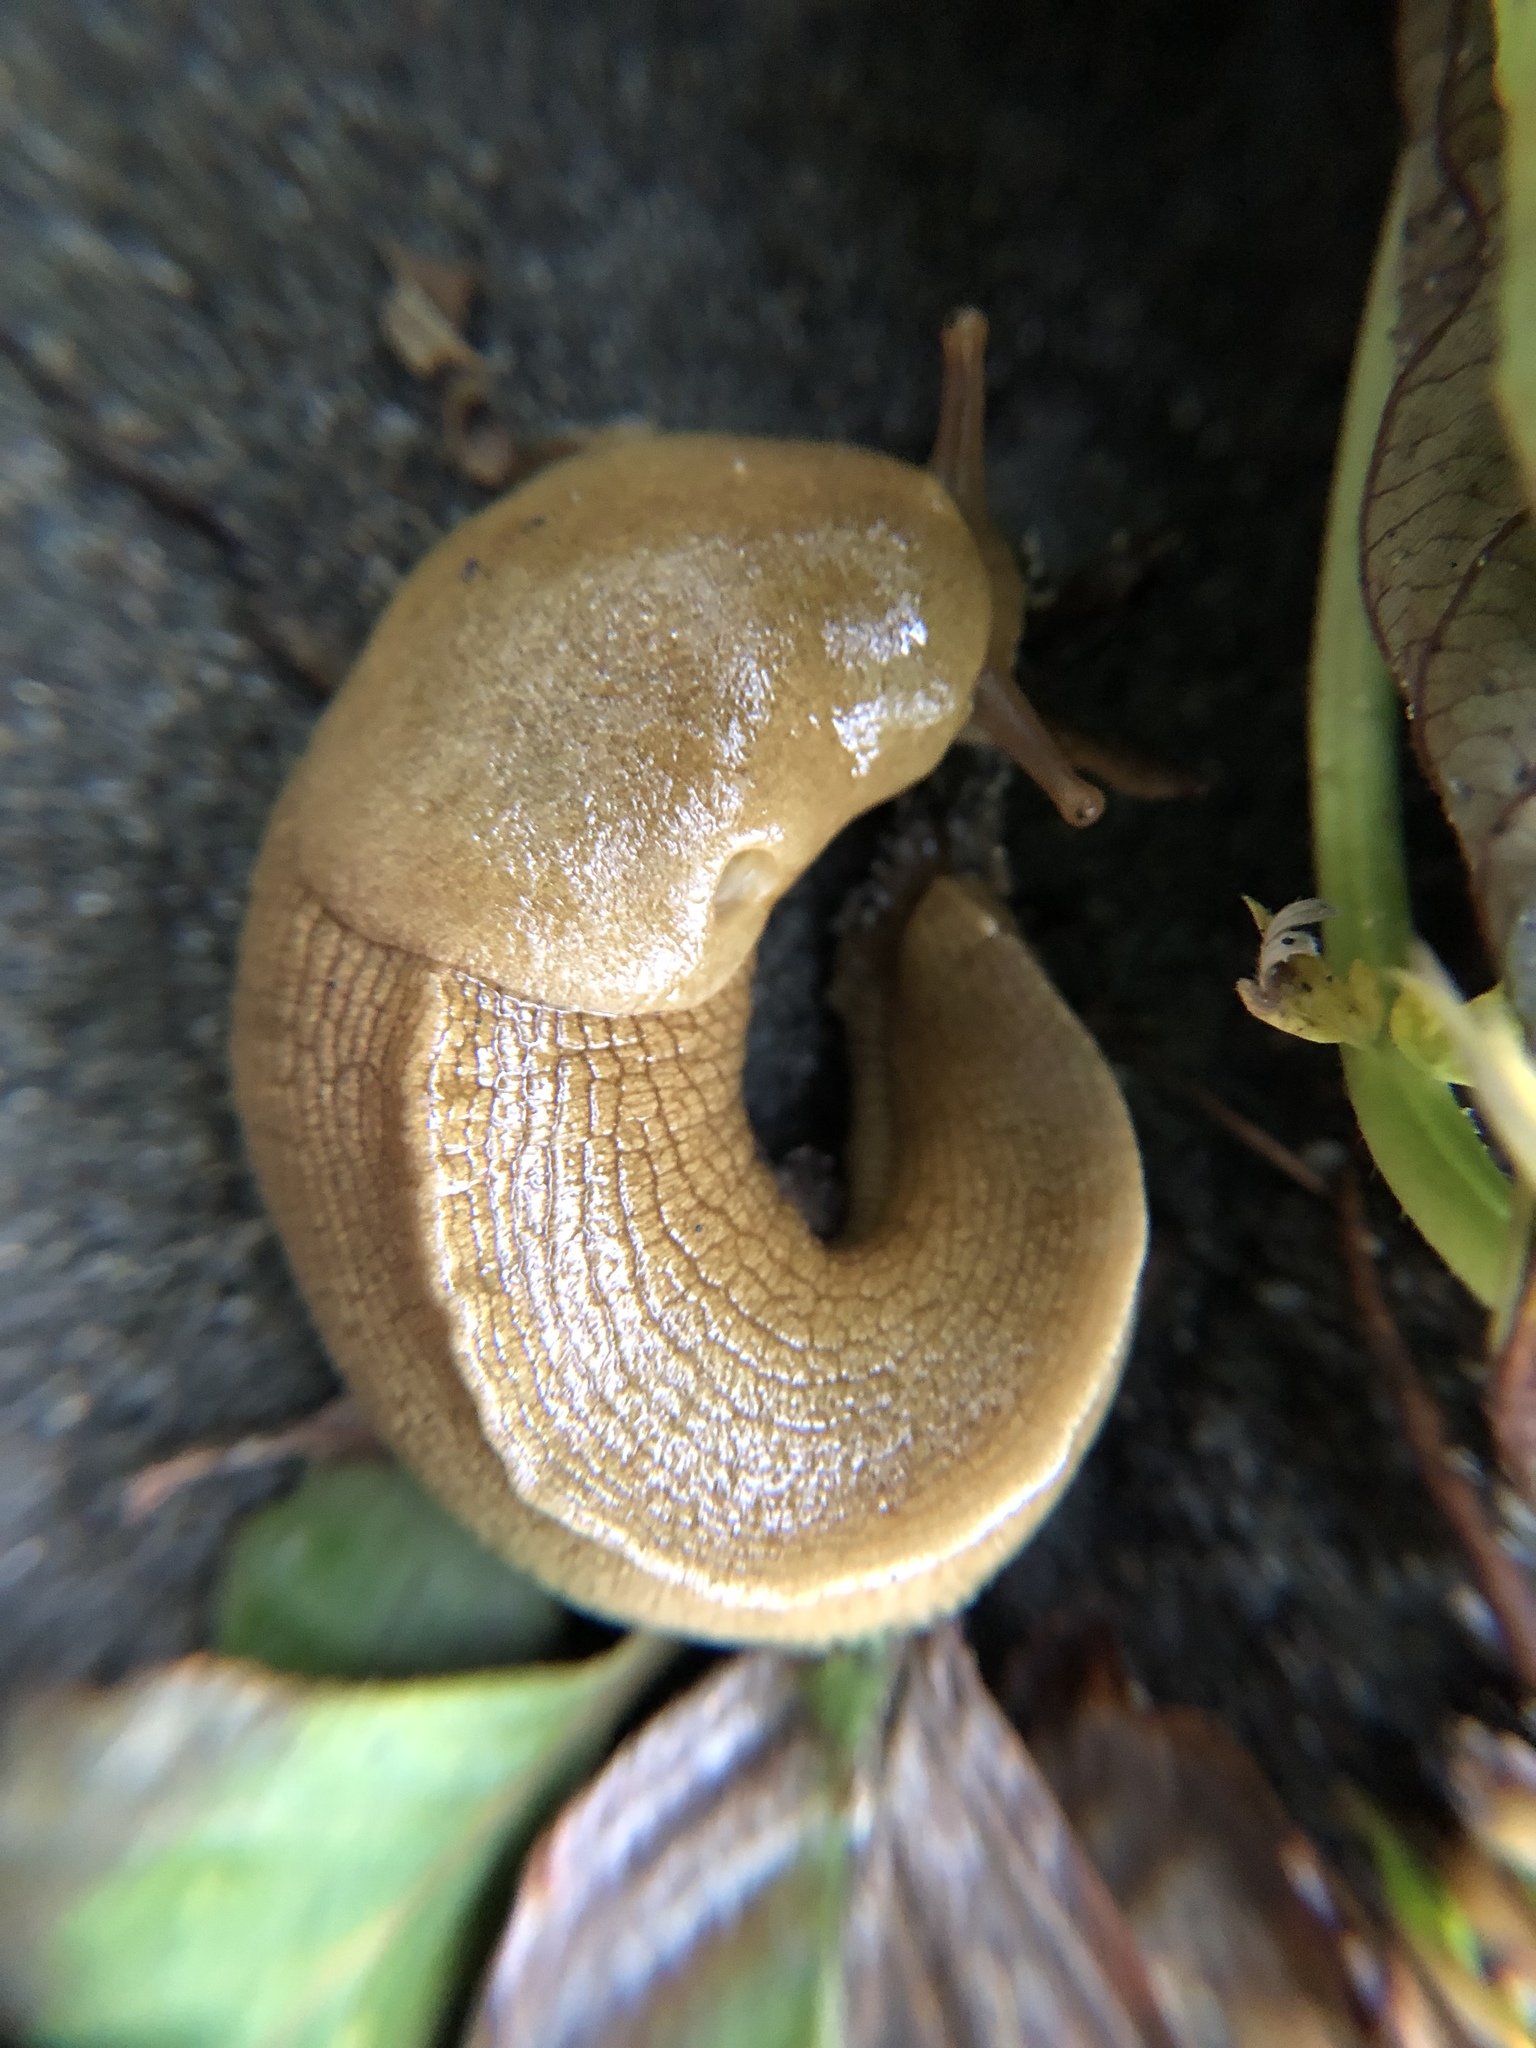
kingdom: Animalia
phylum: Mollusca
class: Gastropoda
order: Stylommatophora
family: Ariolimacidae
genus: Ariolimax
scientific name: Ariolimax columbianus
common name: Pacific banana slug
